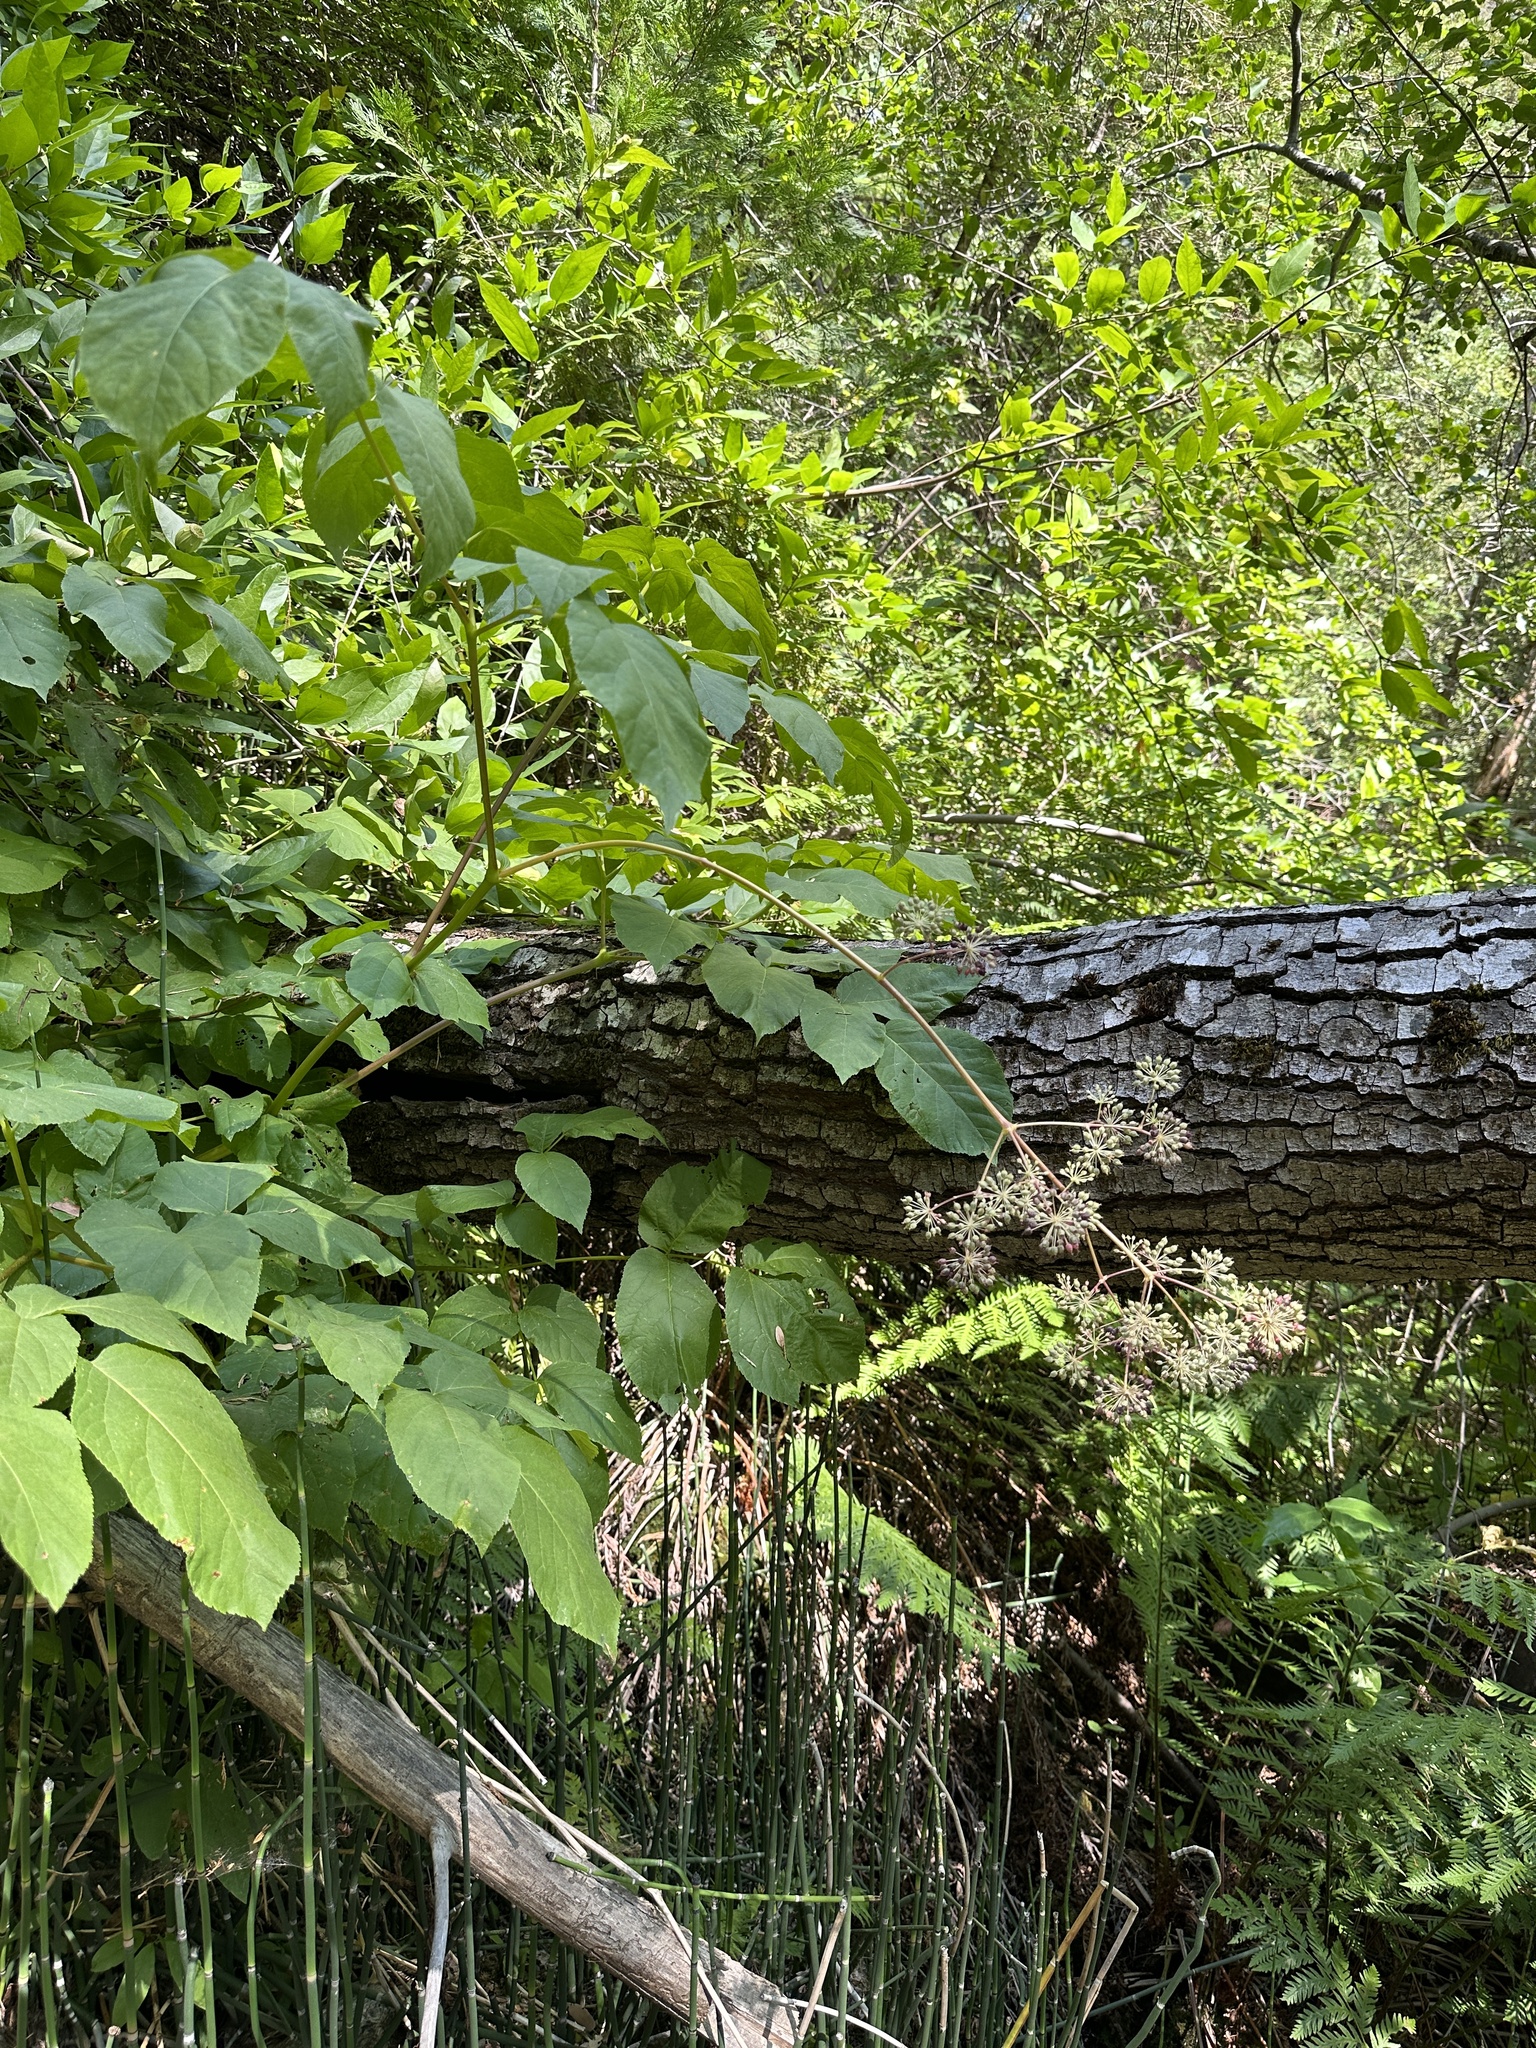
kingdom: Plantae
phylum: Tracheophyta
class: Magnoliopsida
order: Apiales
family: Araliaceae
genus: Aralia
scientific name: Aralia californica
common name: California-ginseng
